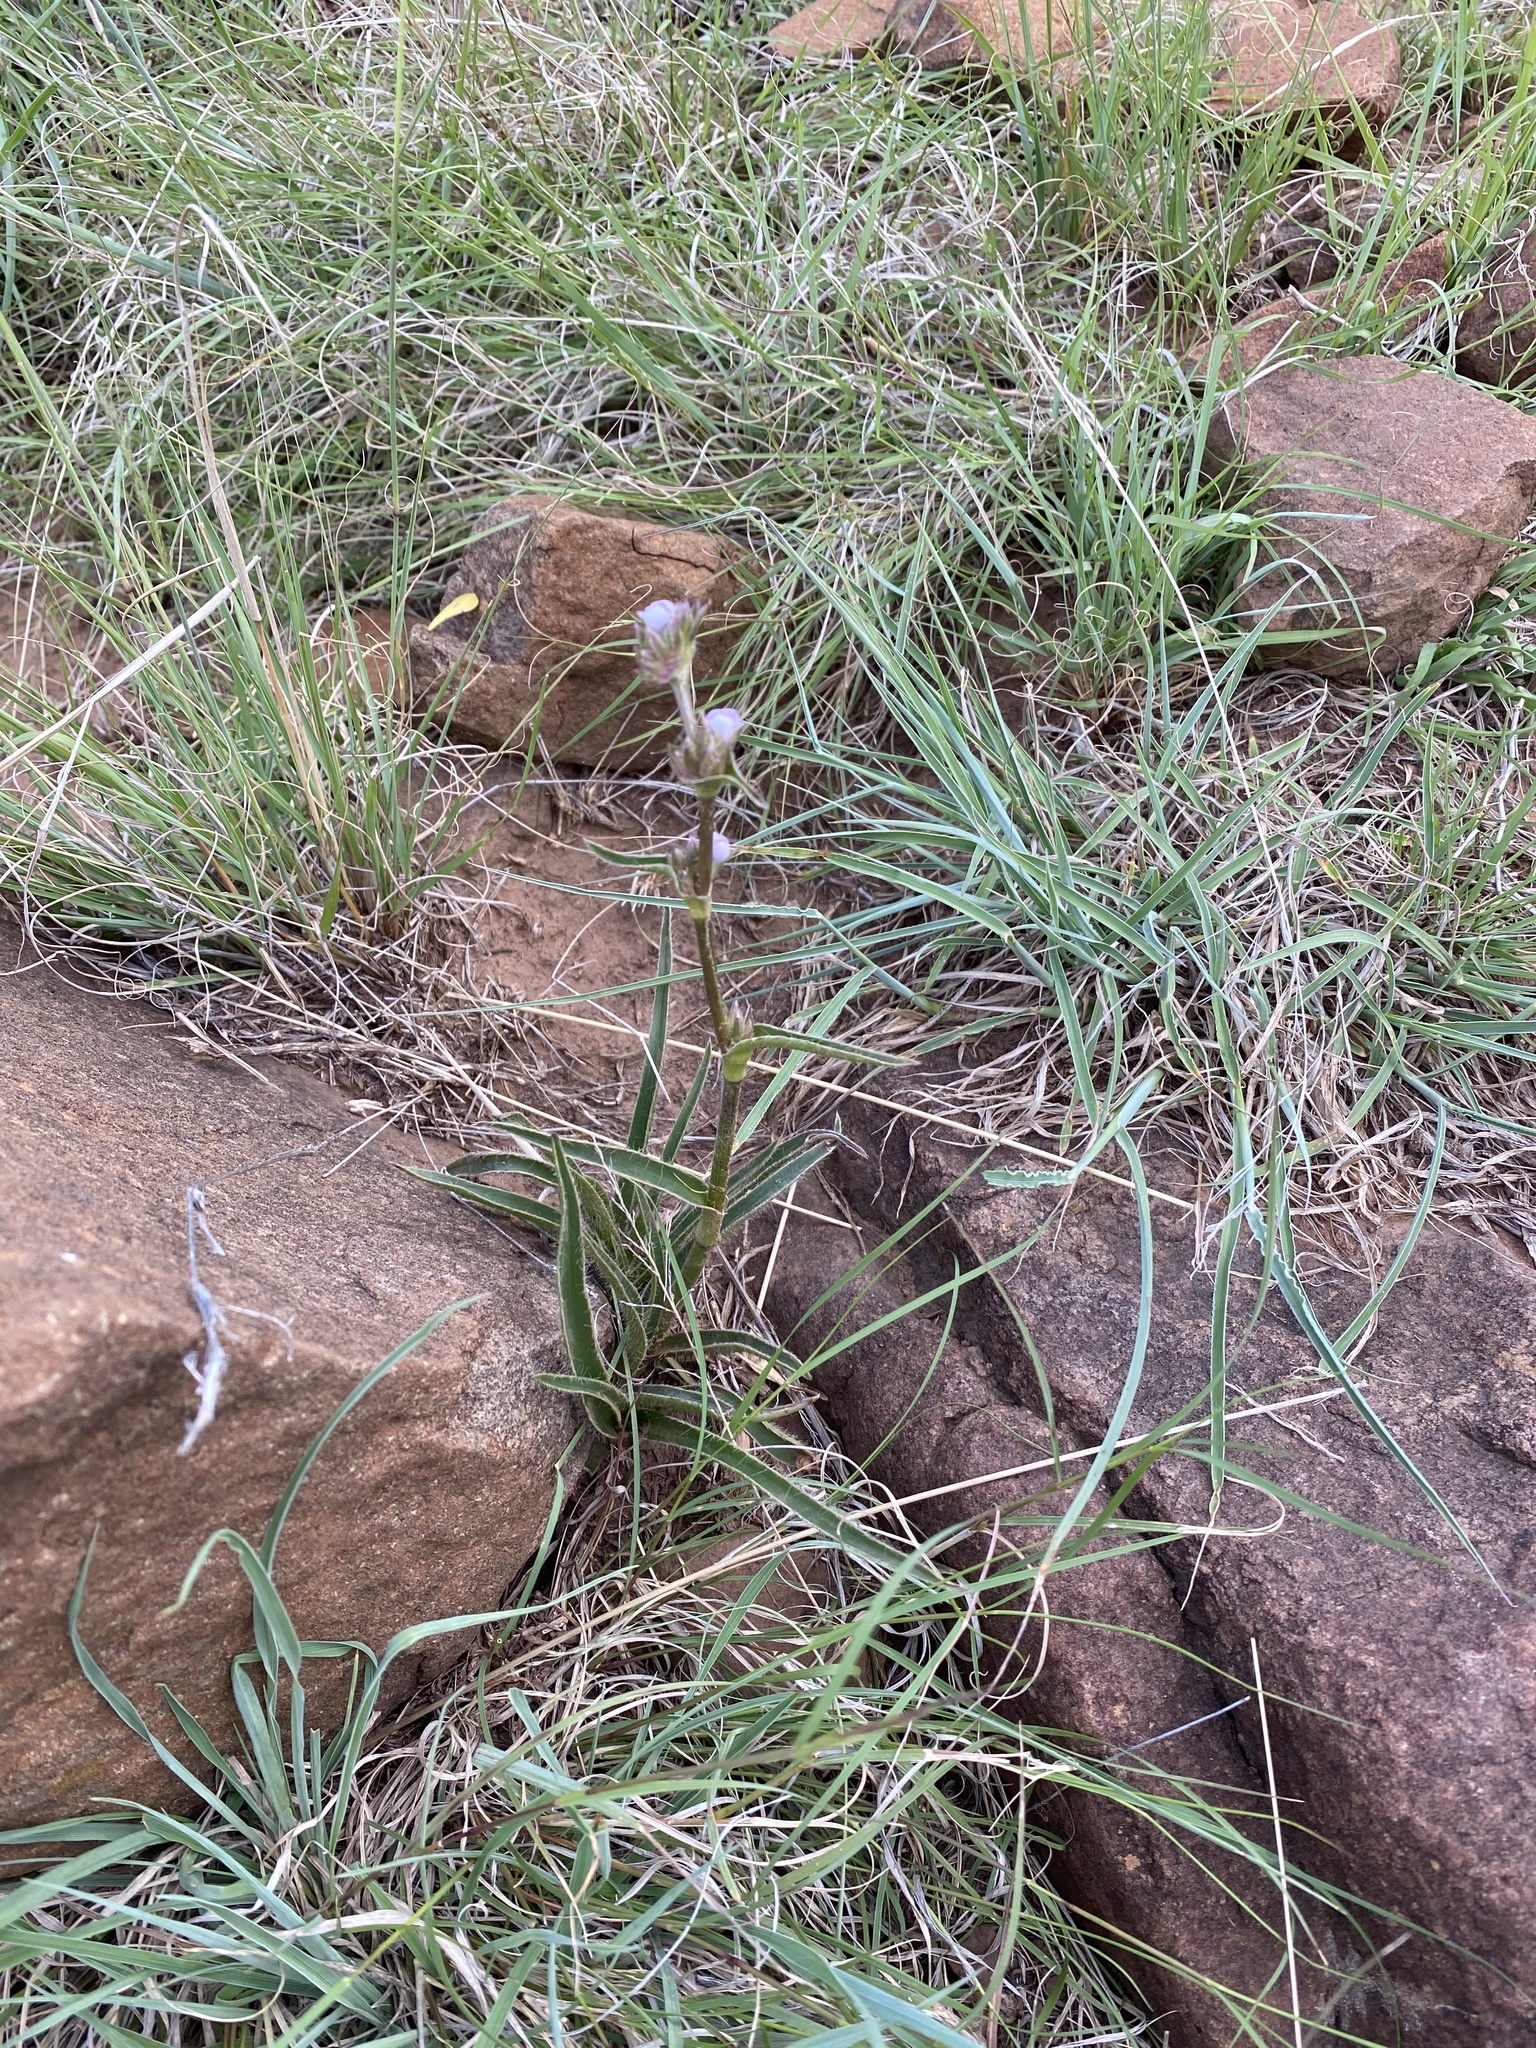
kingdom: Plantae
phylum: Tracheophyta
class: Liliopsida
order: Commelinales
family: Commelinaceae
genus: Cyanotis
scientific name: Cyanotis speciosa
